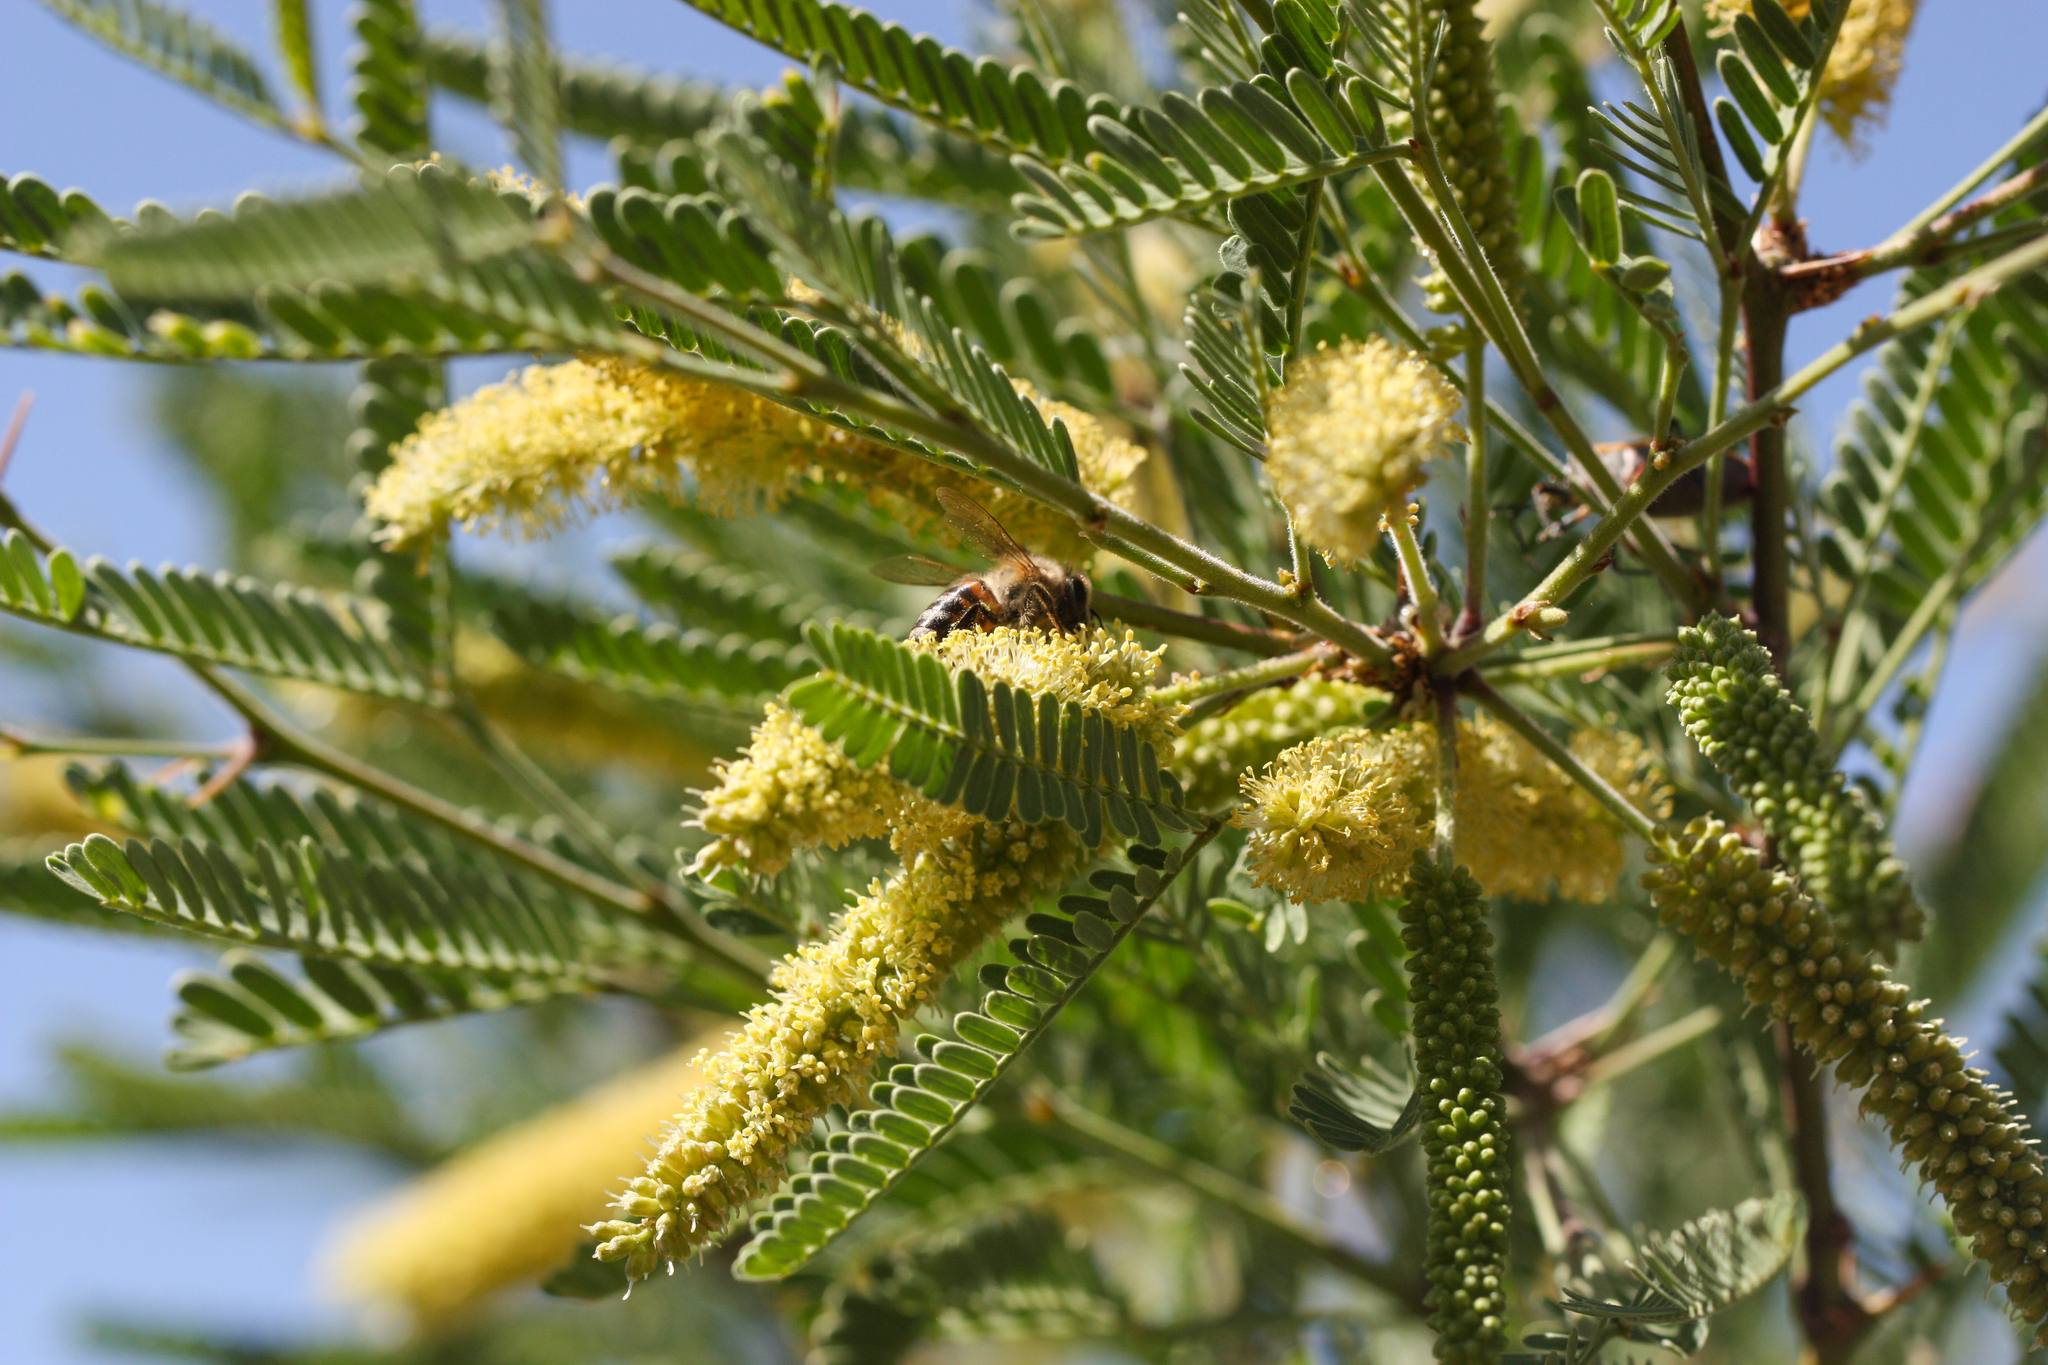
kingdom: Animalia
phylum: Arthropoda
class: Insecta
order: Hymenoptera
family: Apidae
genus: Apis
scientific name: Apis mellifera
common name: Honey bee
